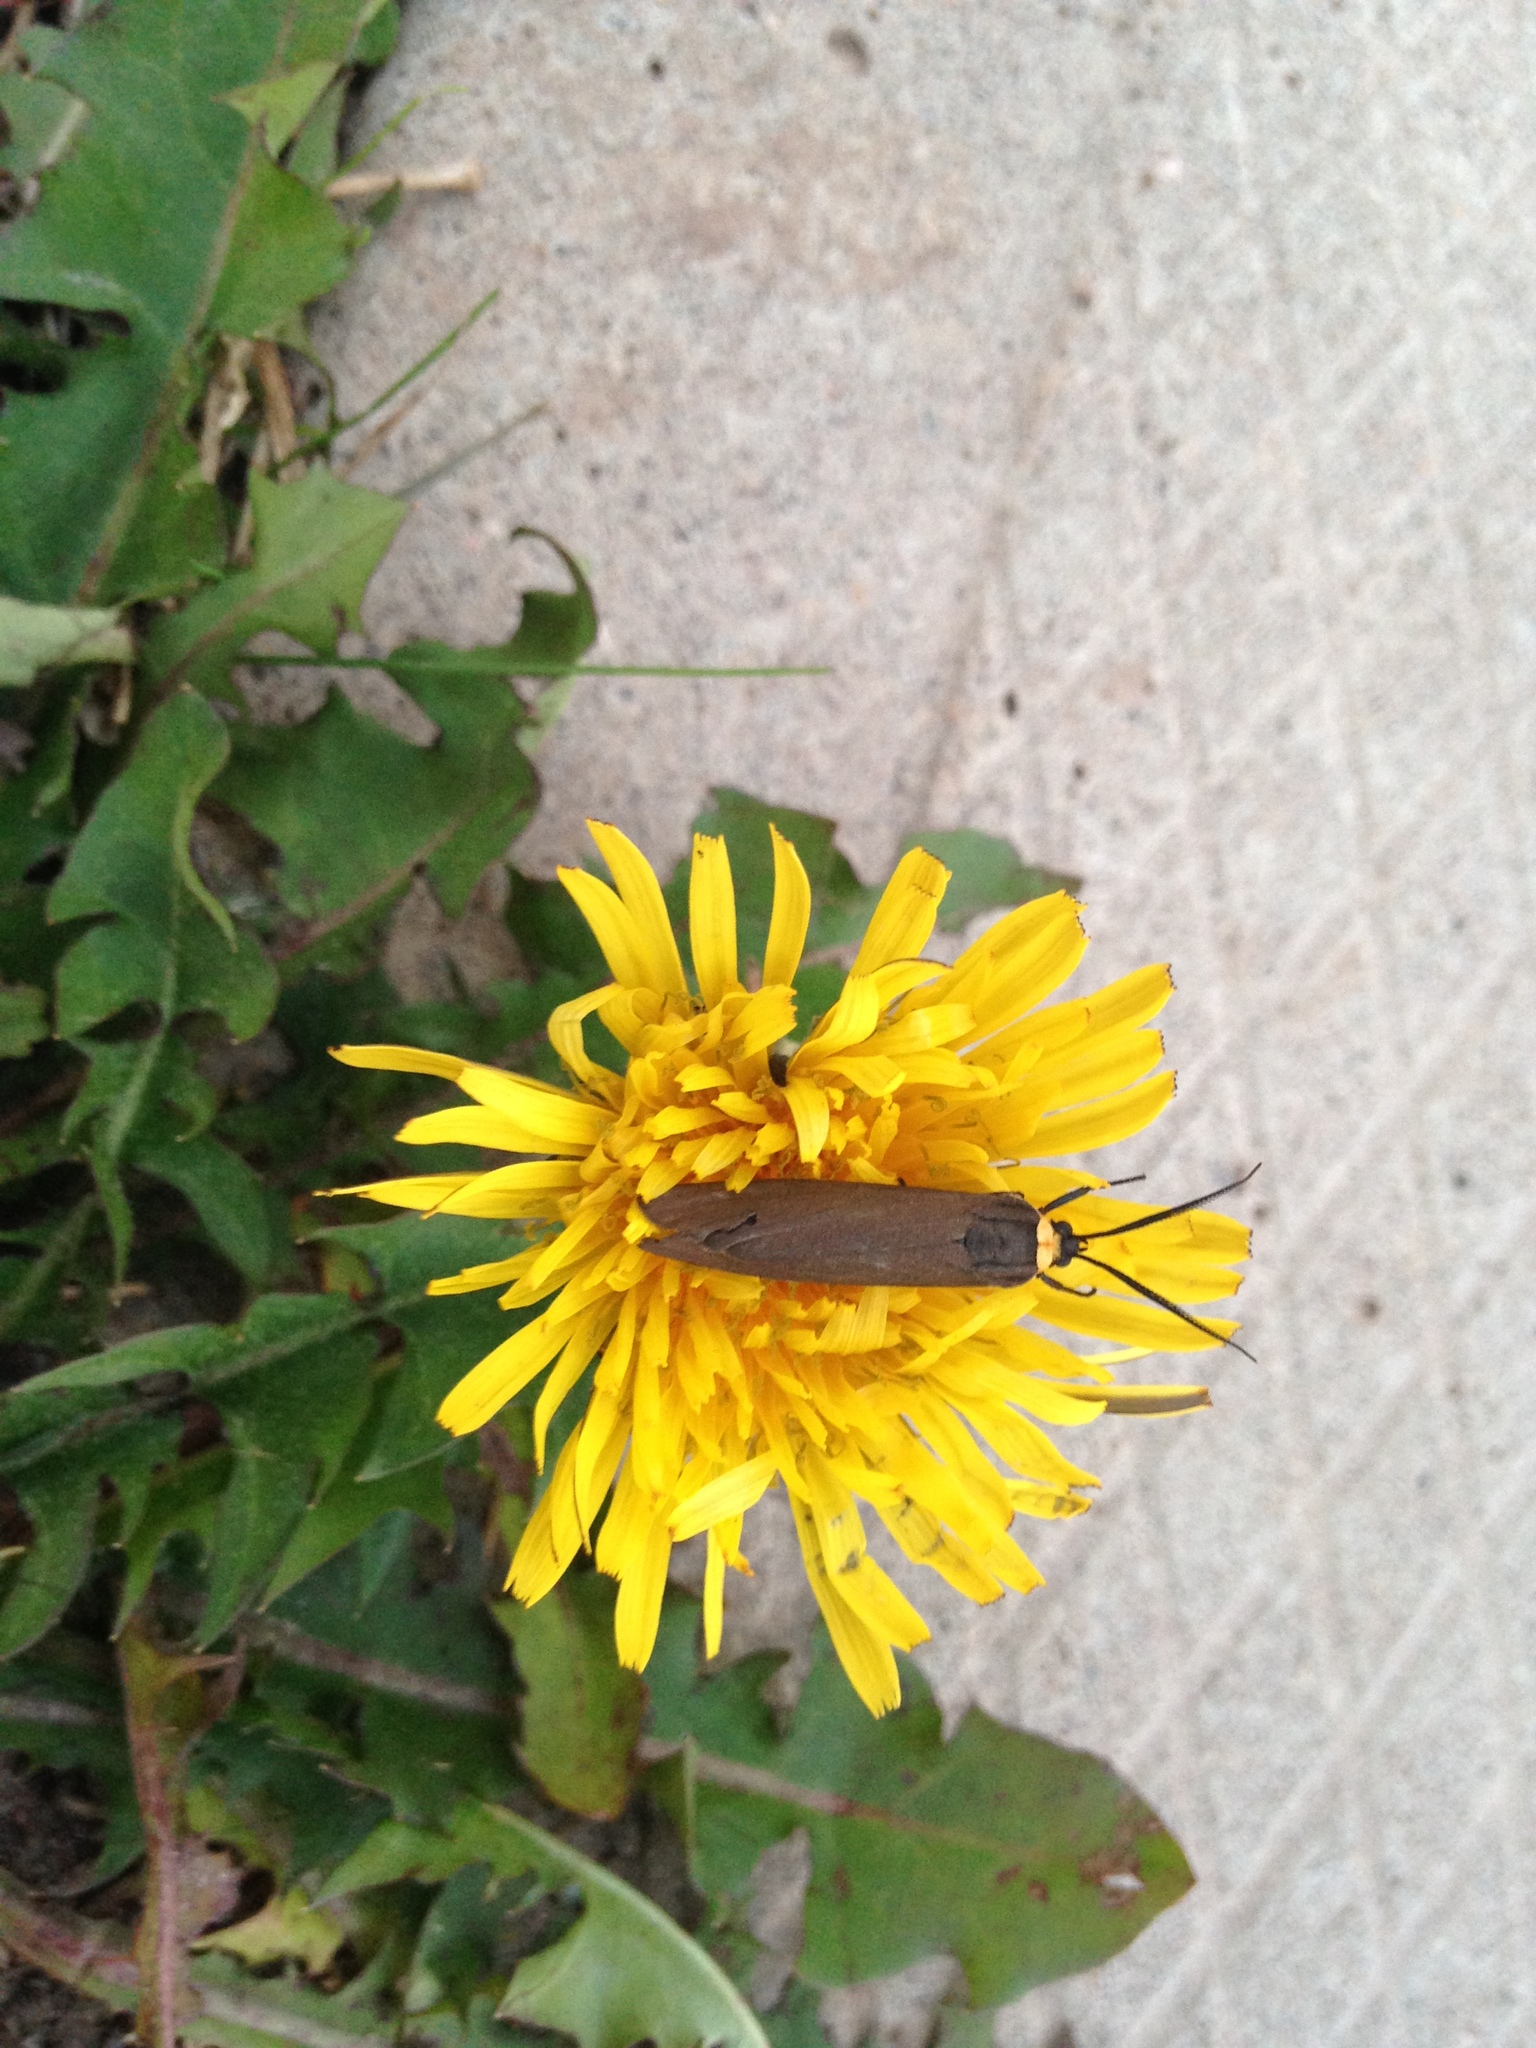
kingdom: Animalia
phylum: Arthropoda
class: Insecta
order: Lepidoptera
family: Erebidae
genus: Cisseps
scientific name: Cisseps fulvicollis
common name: Yellow-collared scape moth
